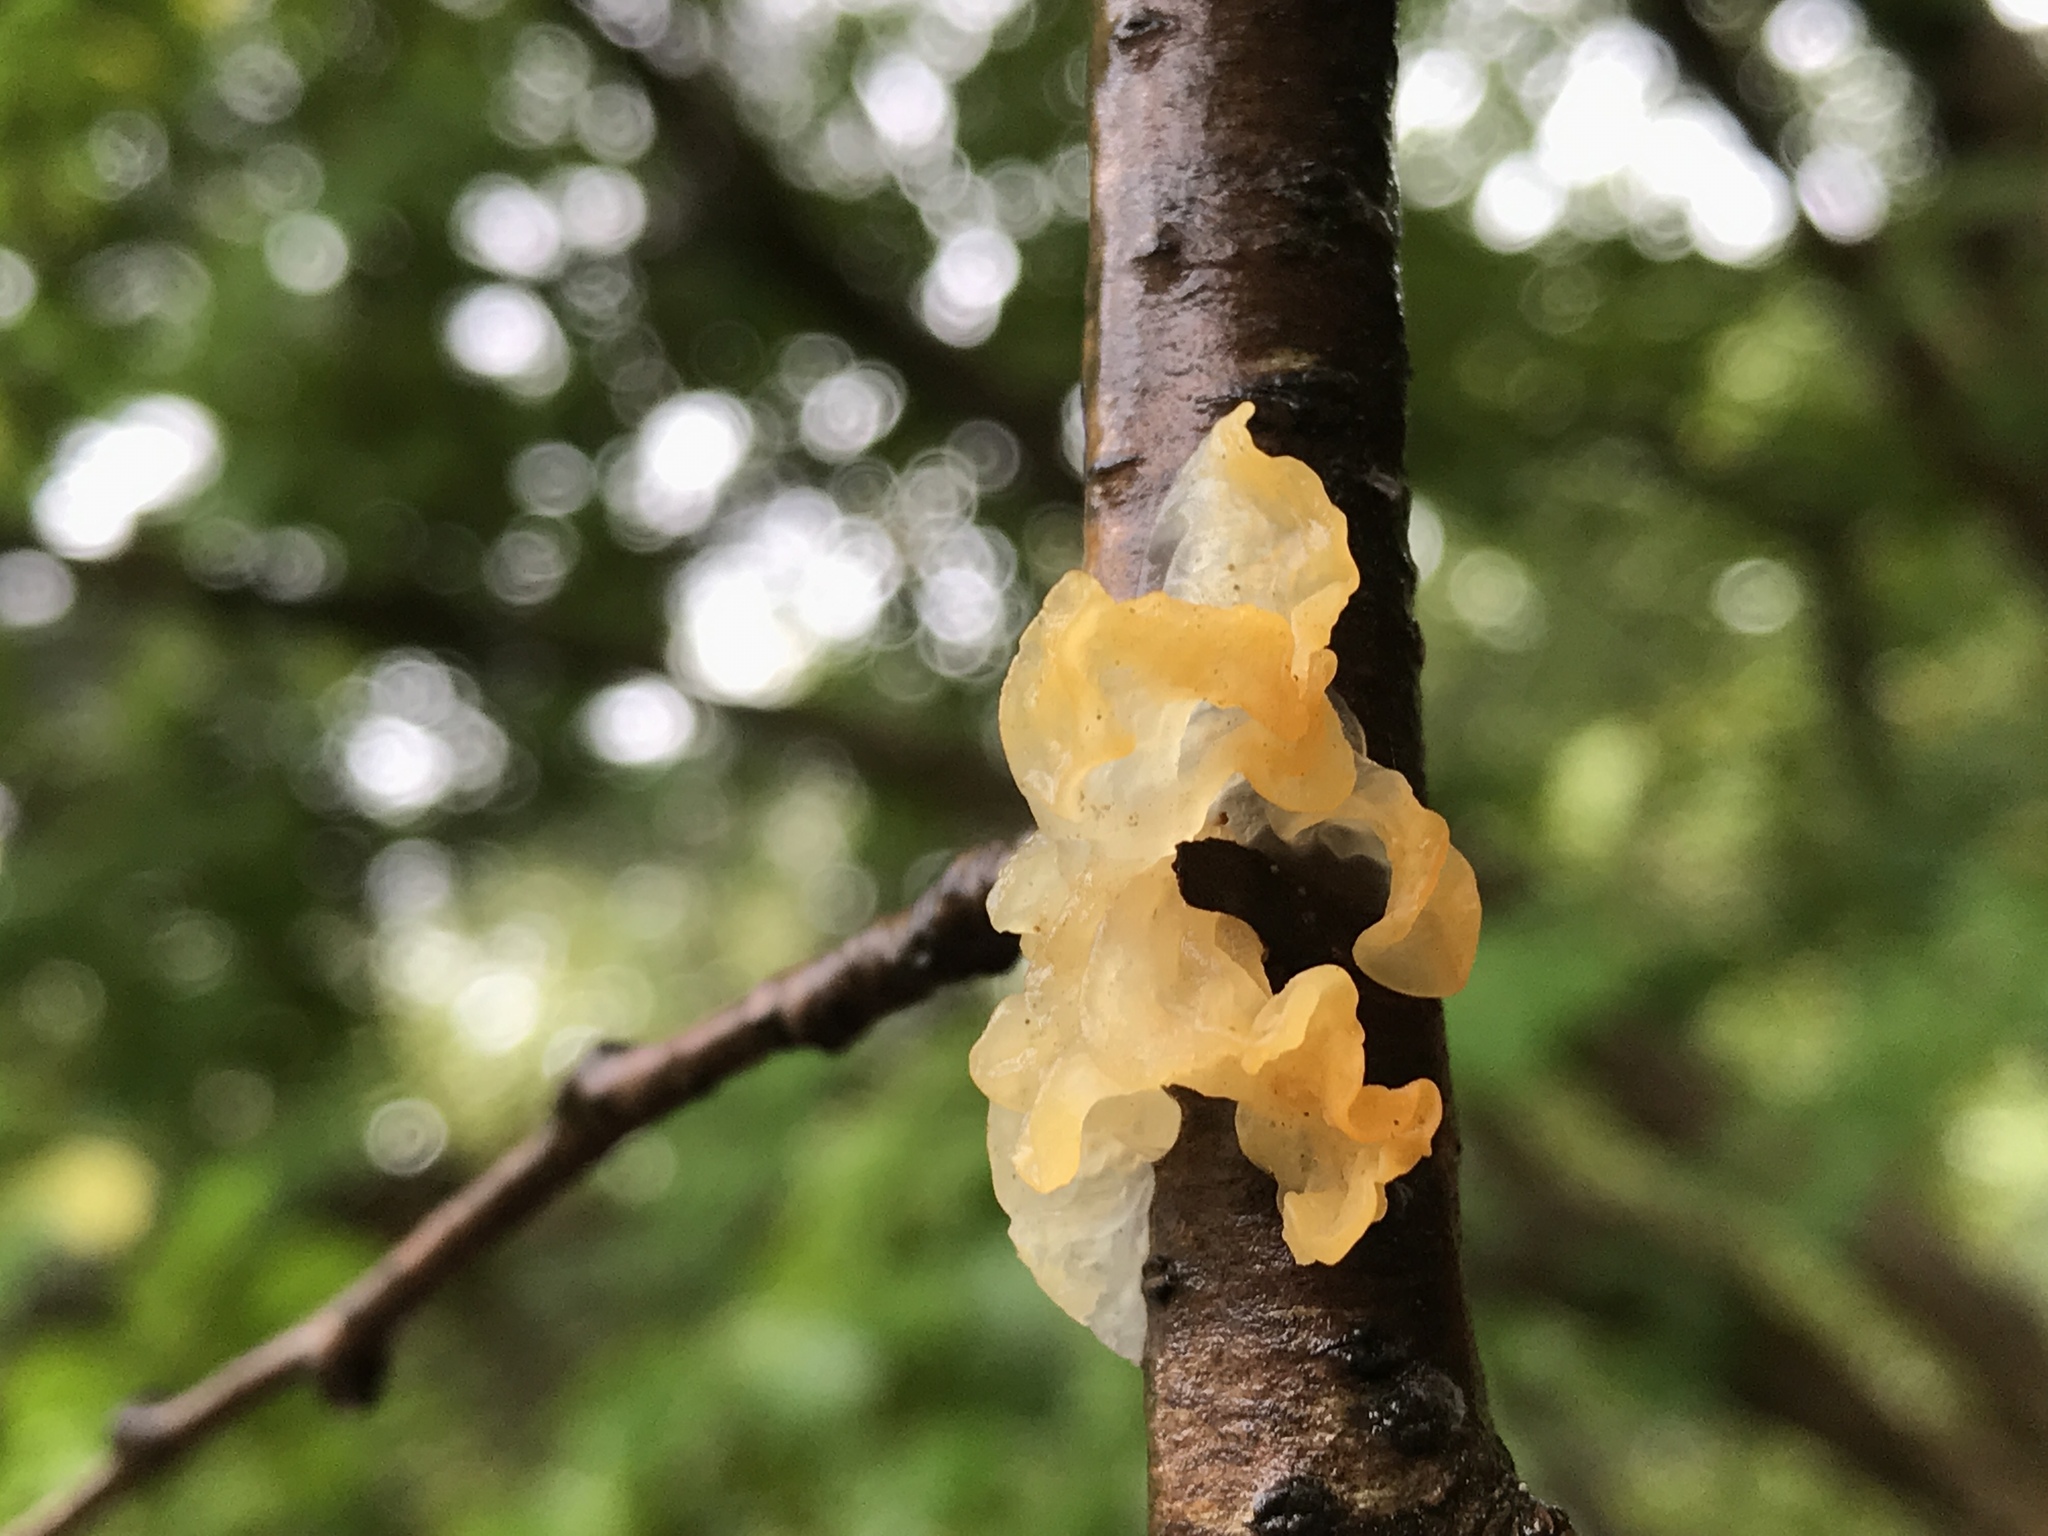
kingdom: Fungi
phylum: Basidiomycota
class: Tremellomycetes
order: Tremellales
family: Tremellaceae
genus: Tremella
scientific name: Tremella mesenterica
